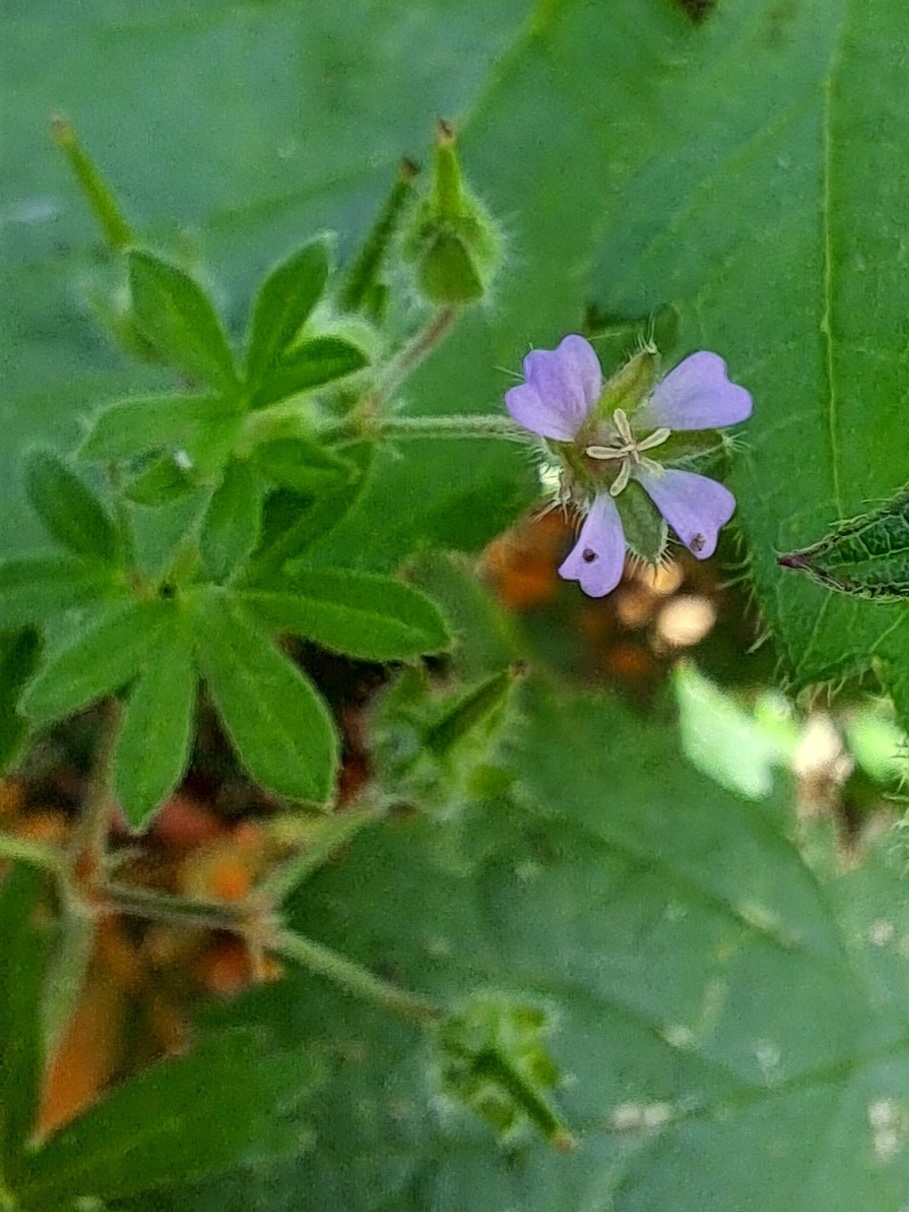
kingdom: Plantae
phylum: Tracheophyta
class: Magnoliopsida
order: Geraniales
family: Geraniaceae
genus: Geranium
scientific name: Geranium pusillum
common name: Small geranium
